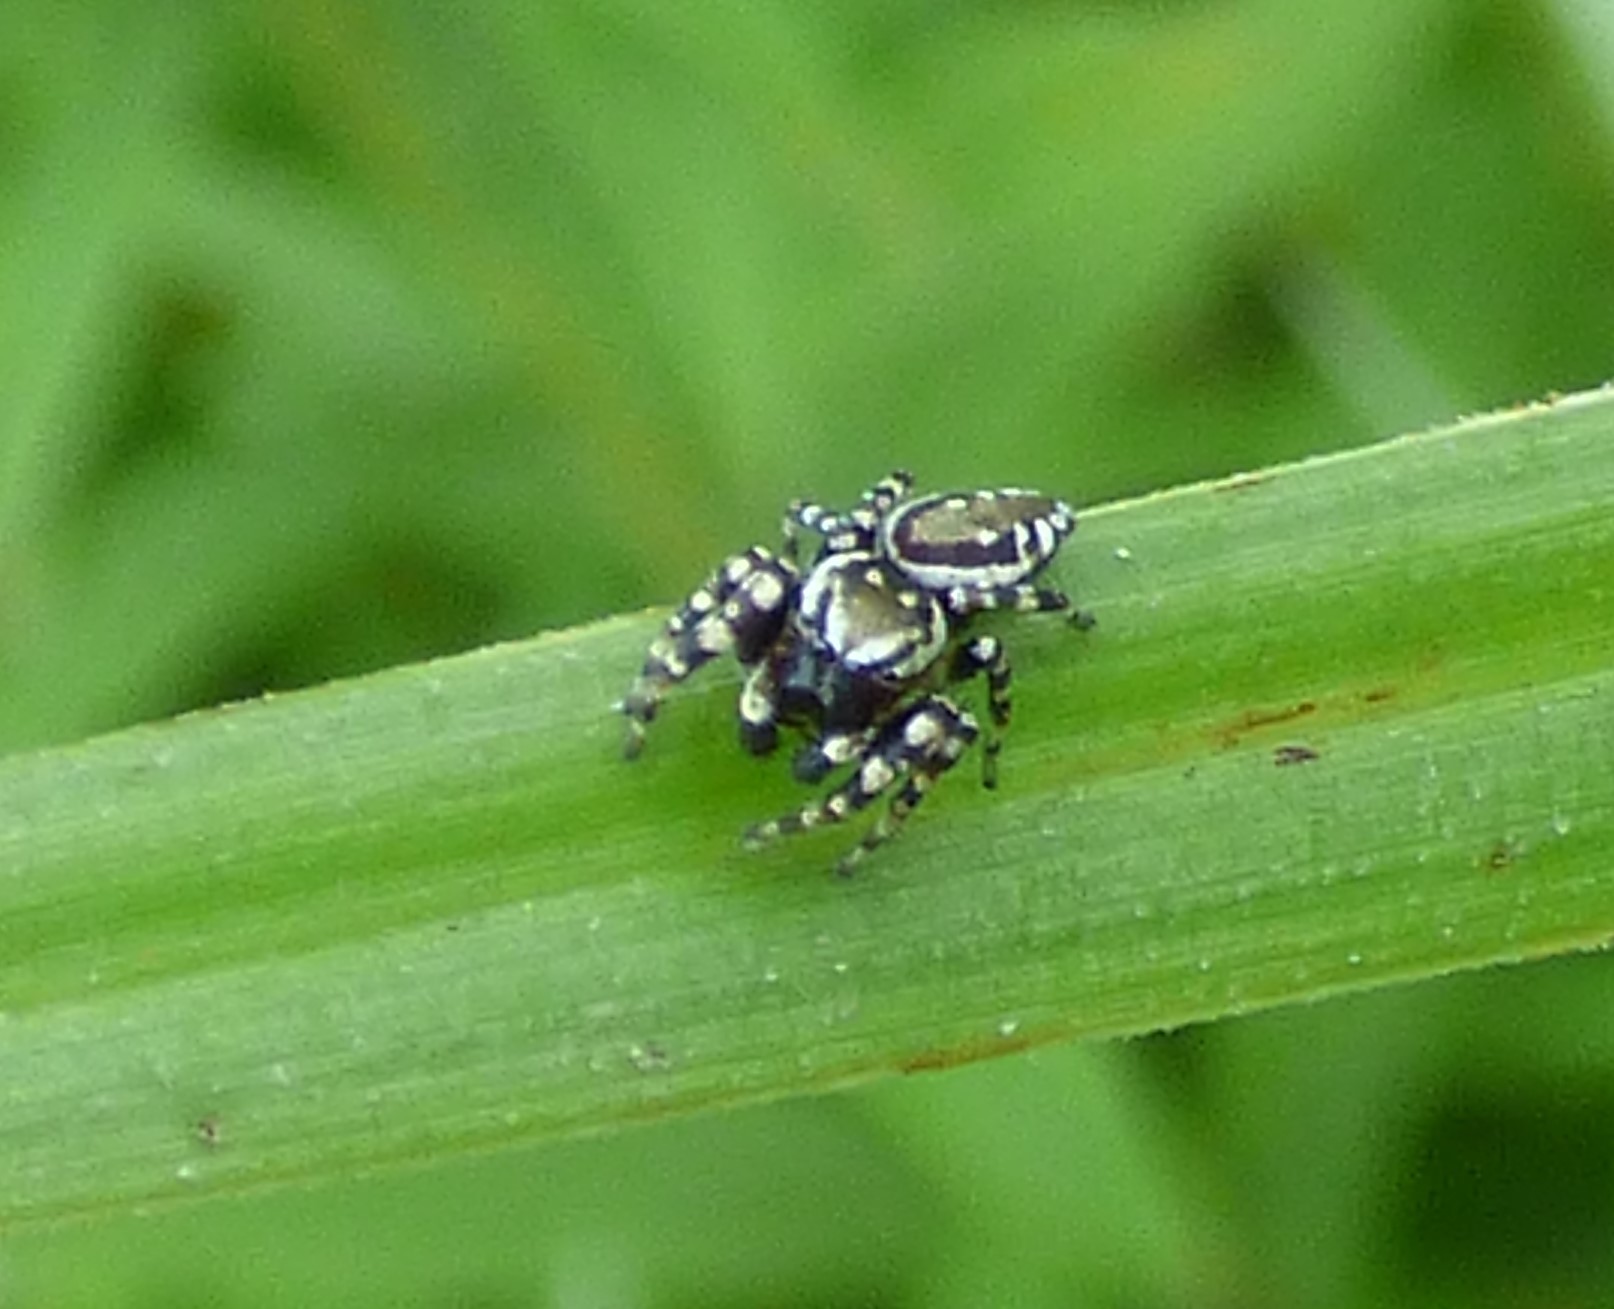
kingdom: Animalia
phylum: Arthropoda
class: Arachnida
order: Araneae
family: Salticidae
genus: Pelegrina
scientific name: Pelegrina galathea
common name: Jumping spiders
